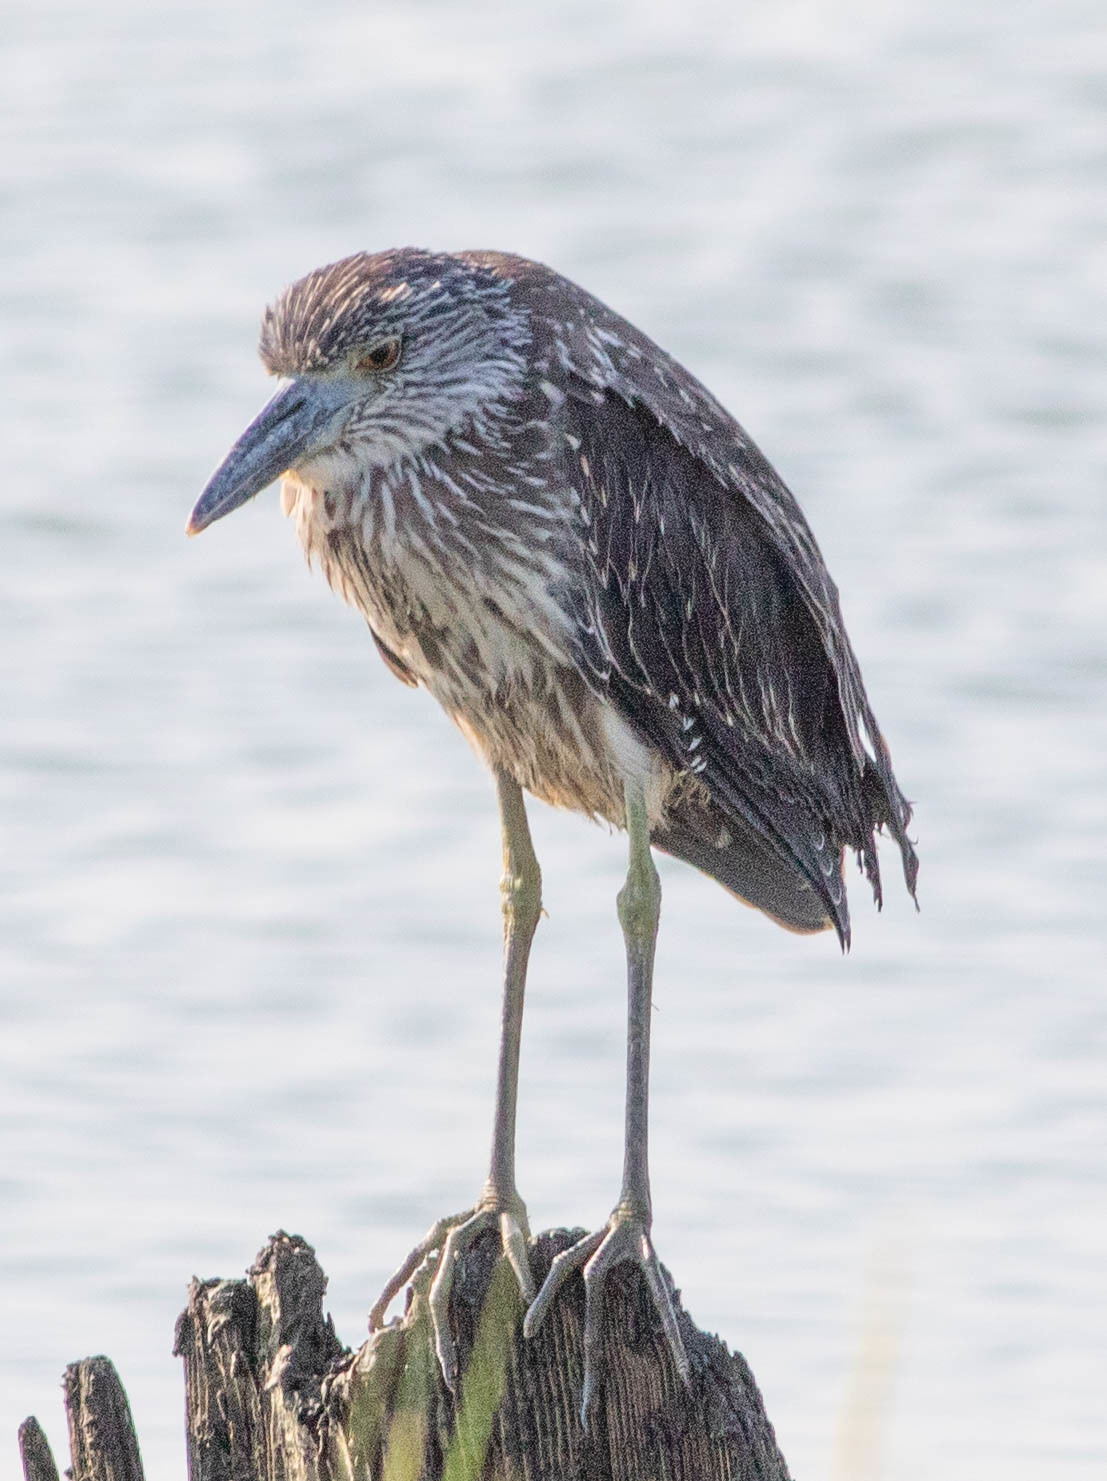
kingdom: Animalia
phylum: Chordata
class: Aves
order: Pelecaniformes
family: Ardeidae
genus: Nyctanassa
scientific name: Nyctanassa violacea
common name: Yellow-crowned night heron
